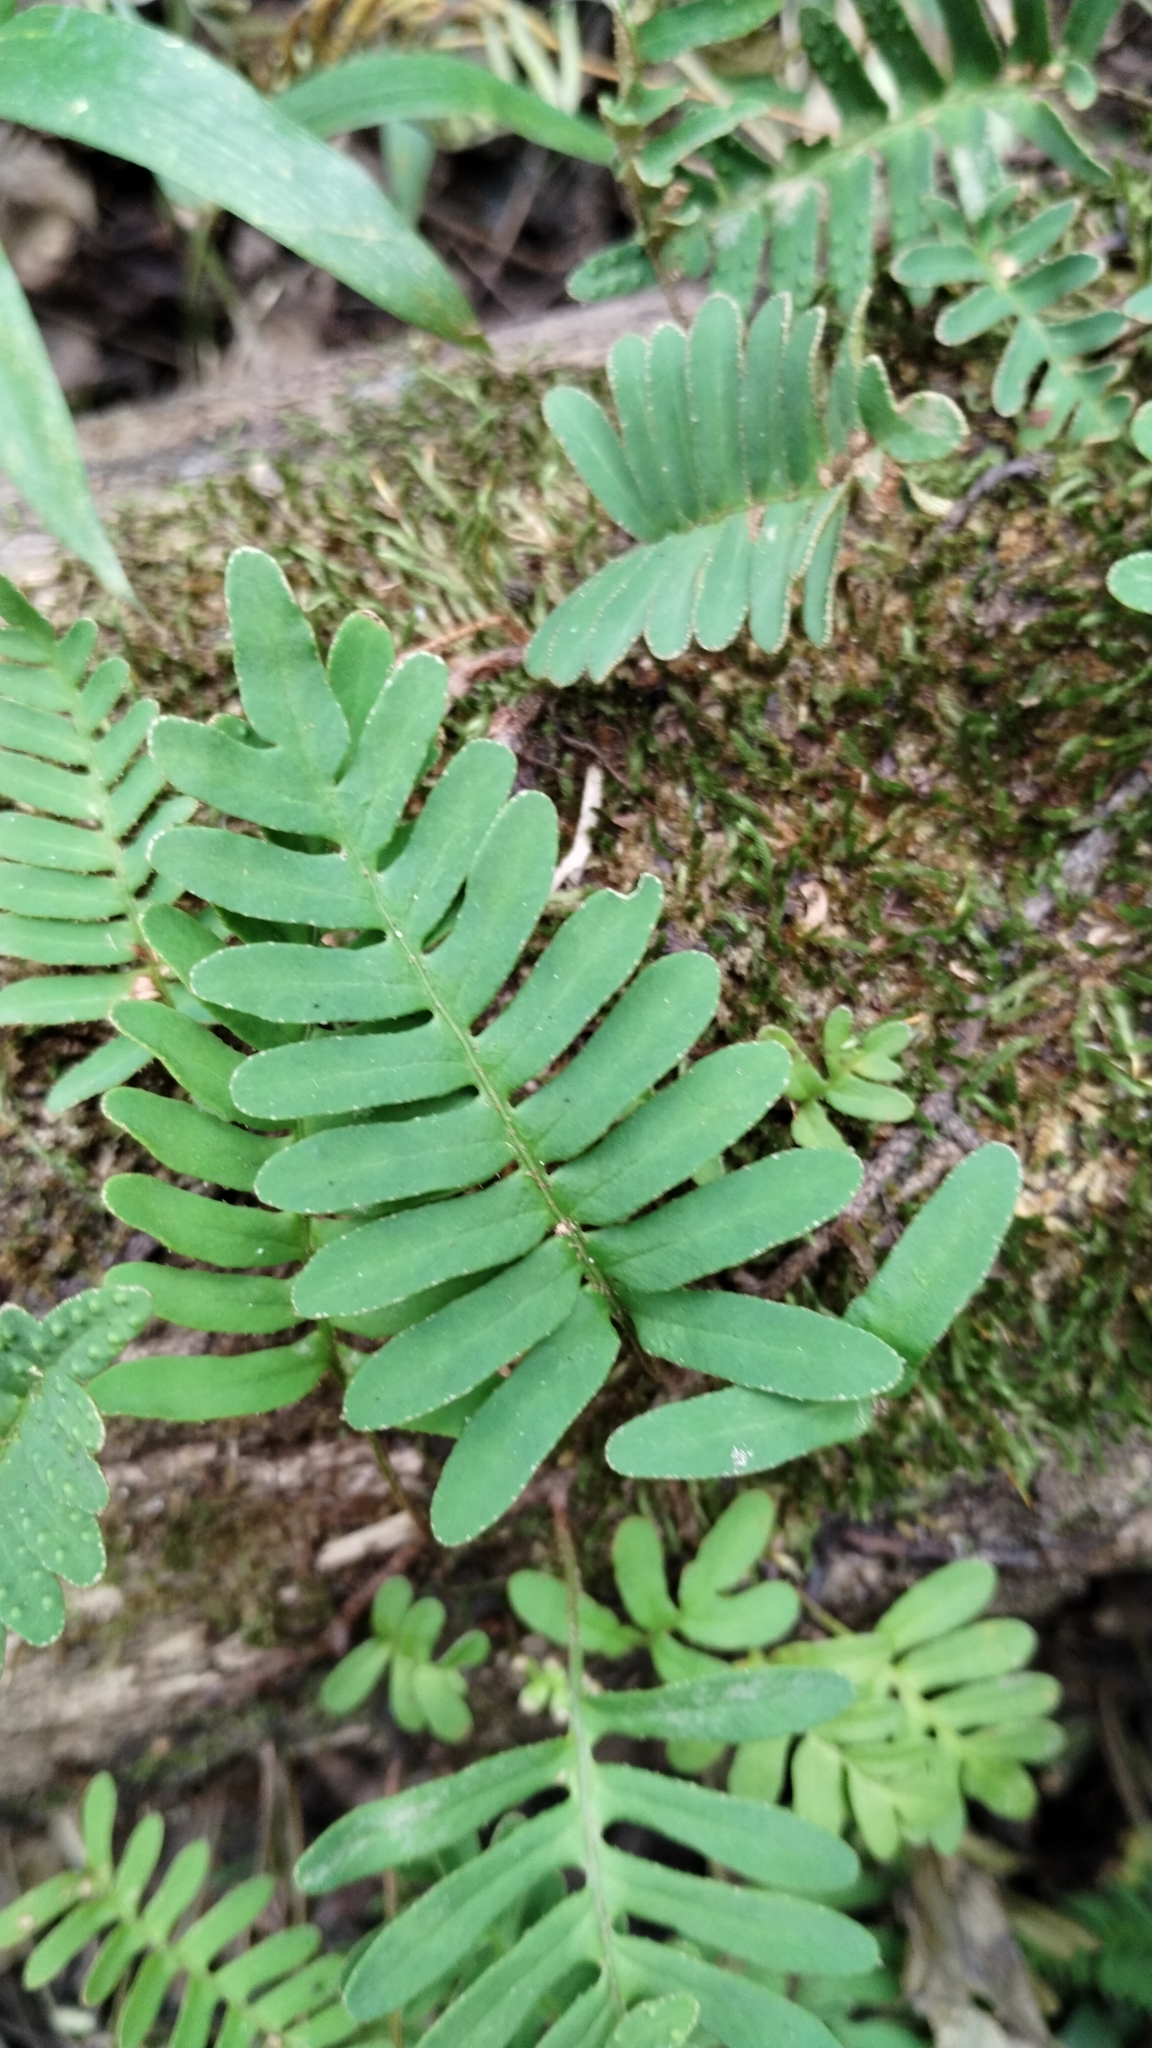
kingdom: Plantae
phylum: Tracheophyta
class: Polypodiopsida
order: Polypodiales
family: Polypodiaceae
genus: Pleopeltis
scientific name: Pleopeltis michauxiana
